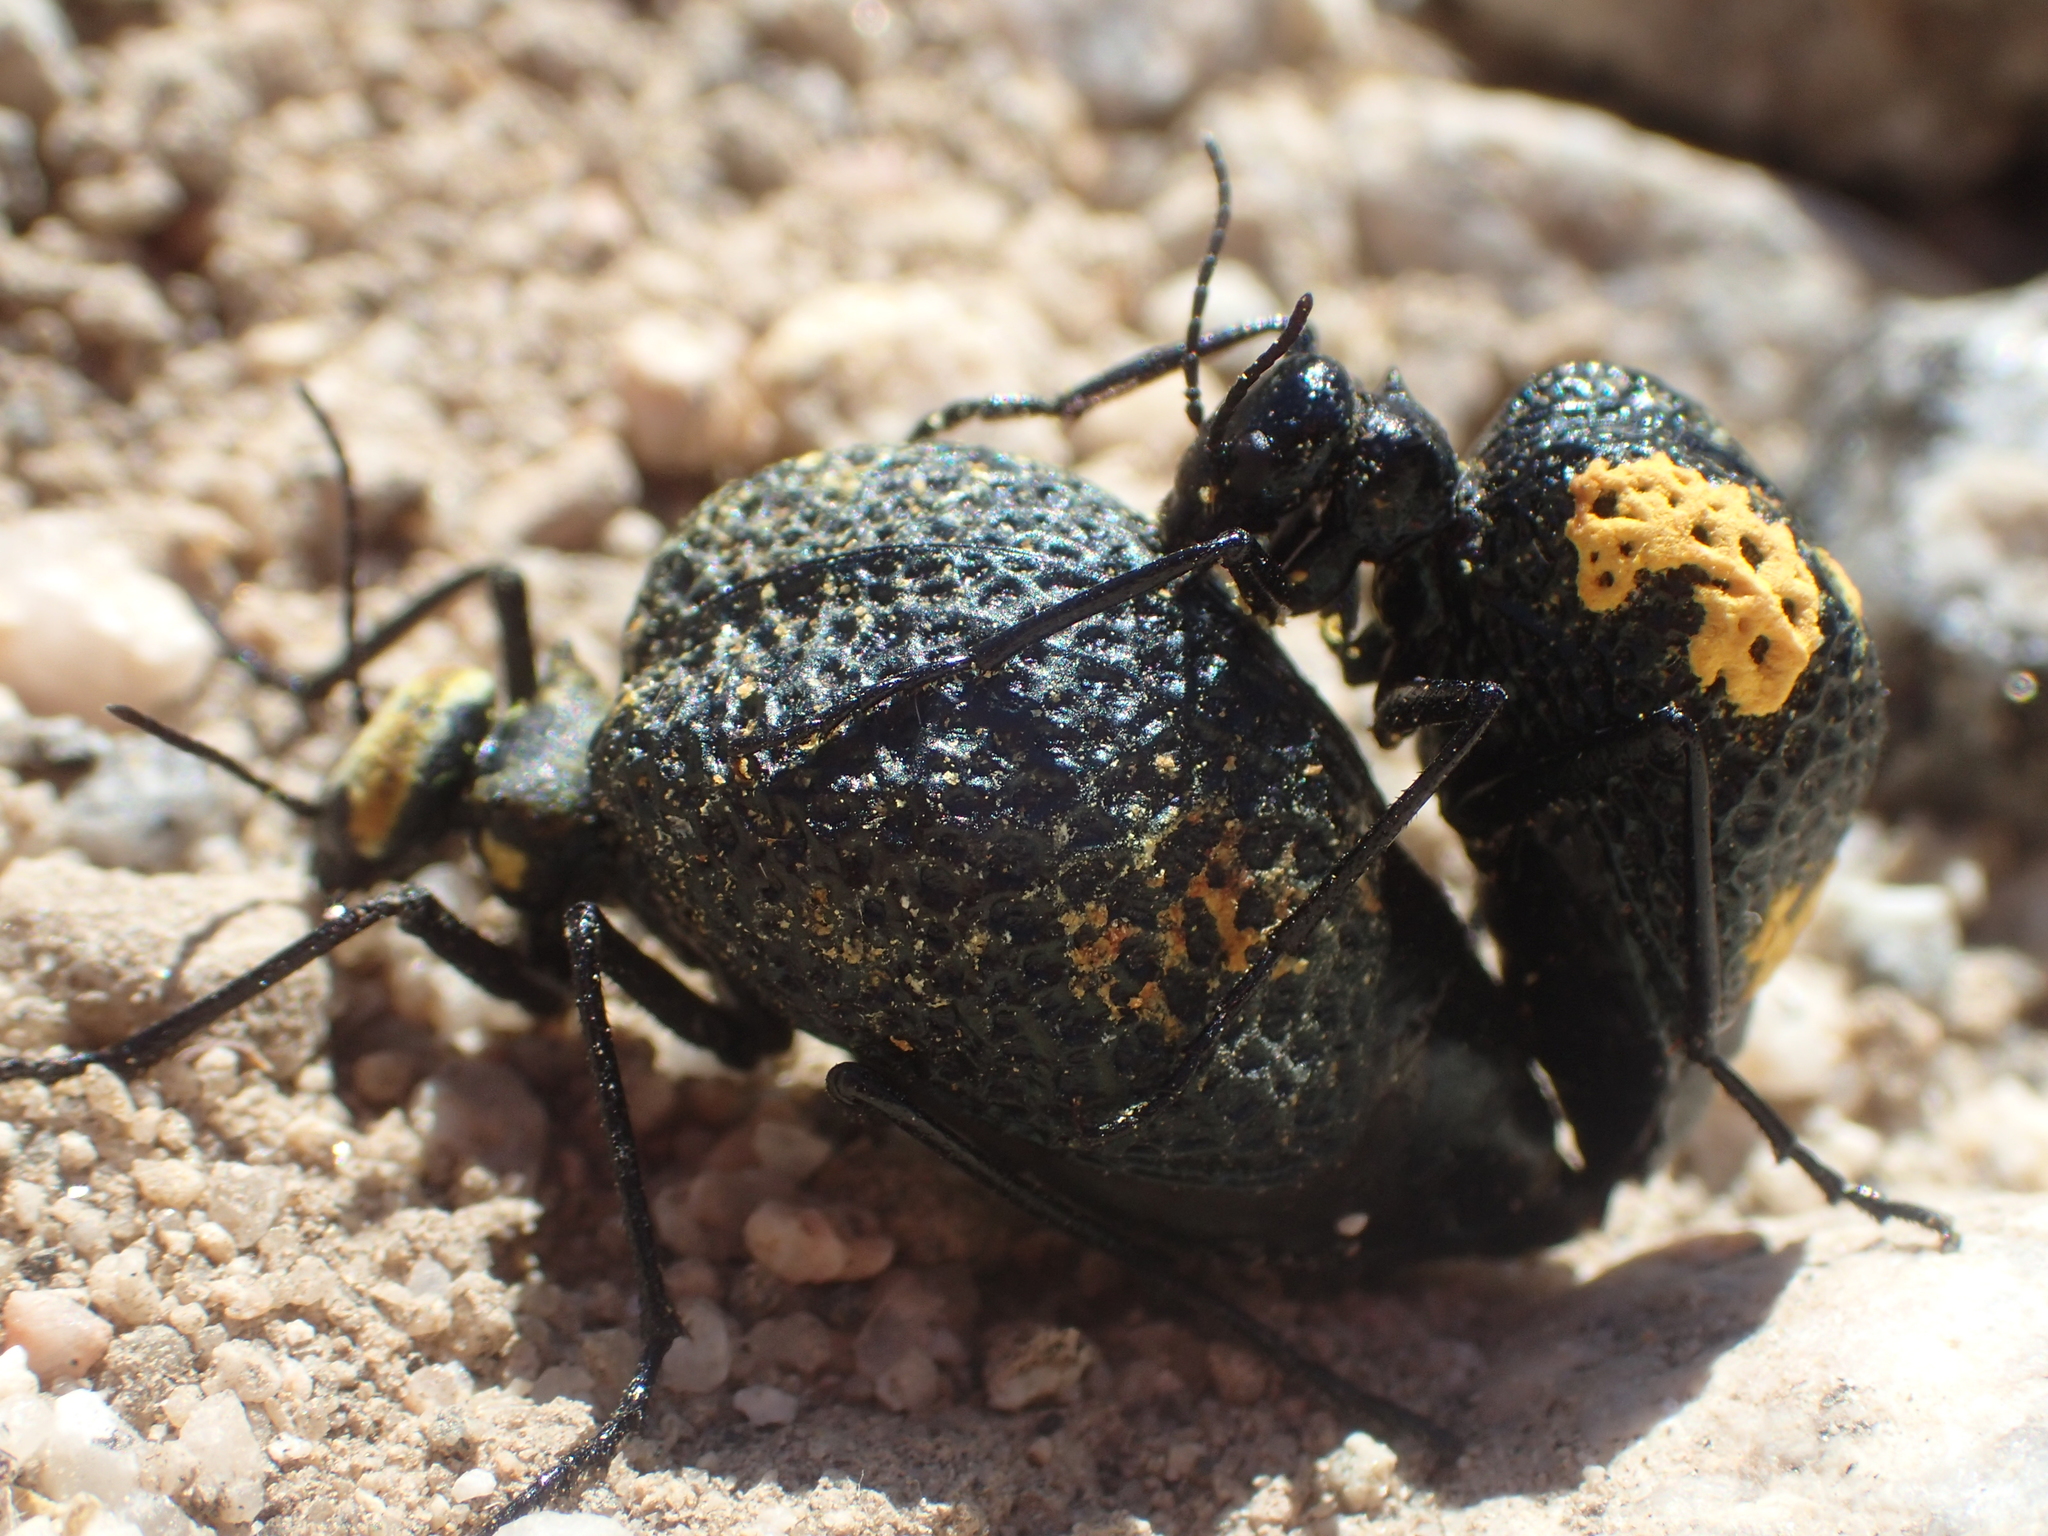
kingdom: Animalia
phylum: Arthropoda
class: Insecta
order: Coleoptera
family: Meloidae
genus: Cysteodemus
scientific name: Cysteodemus armatus
